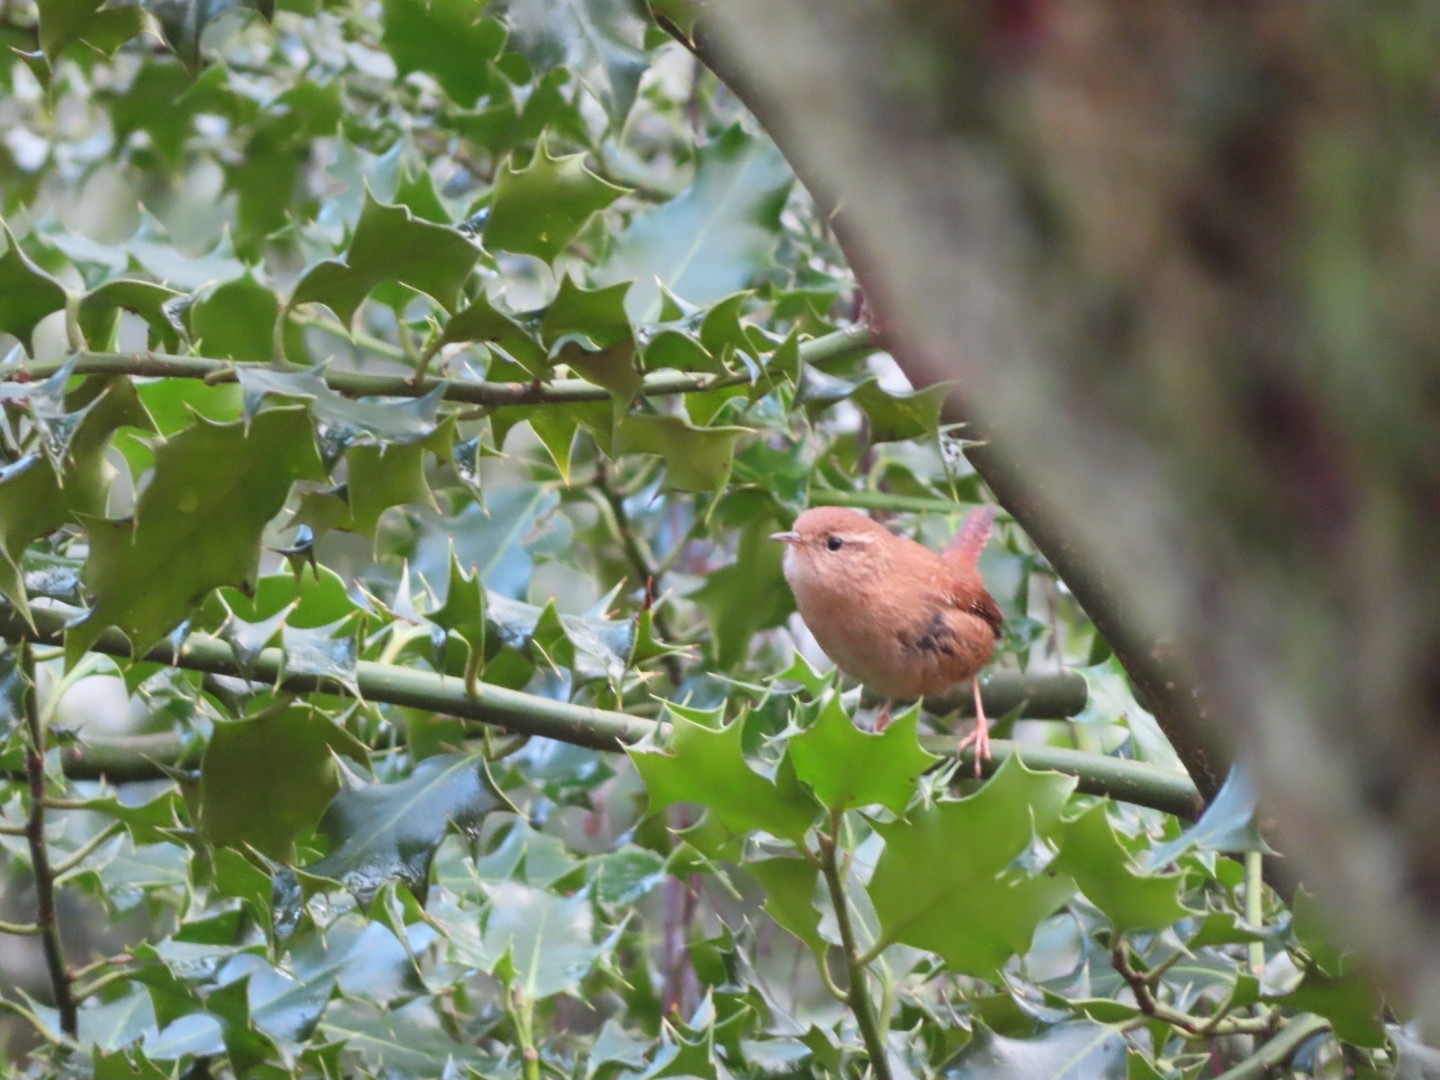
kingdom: Animalia
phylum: Chordata
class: Aves
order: Passeriformes
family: Troglodytidae
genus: Troglodytes
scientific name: Troglodytes troglodytes
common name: Eurasian wren
